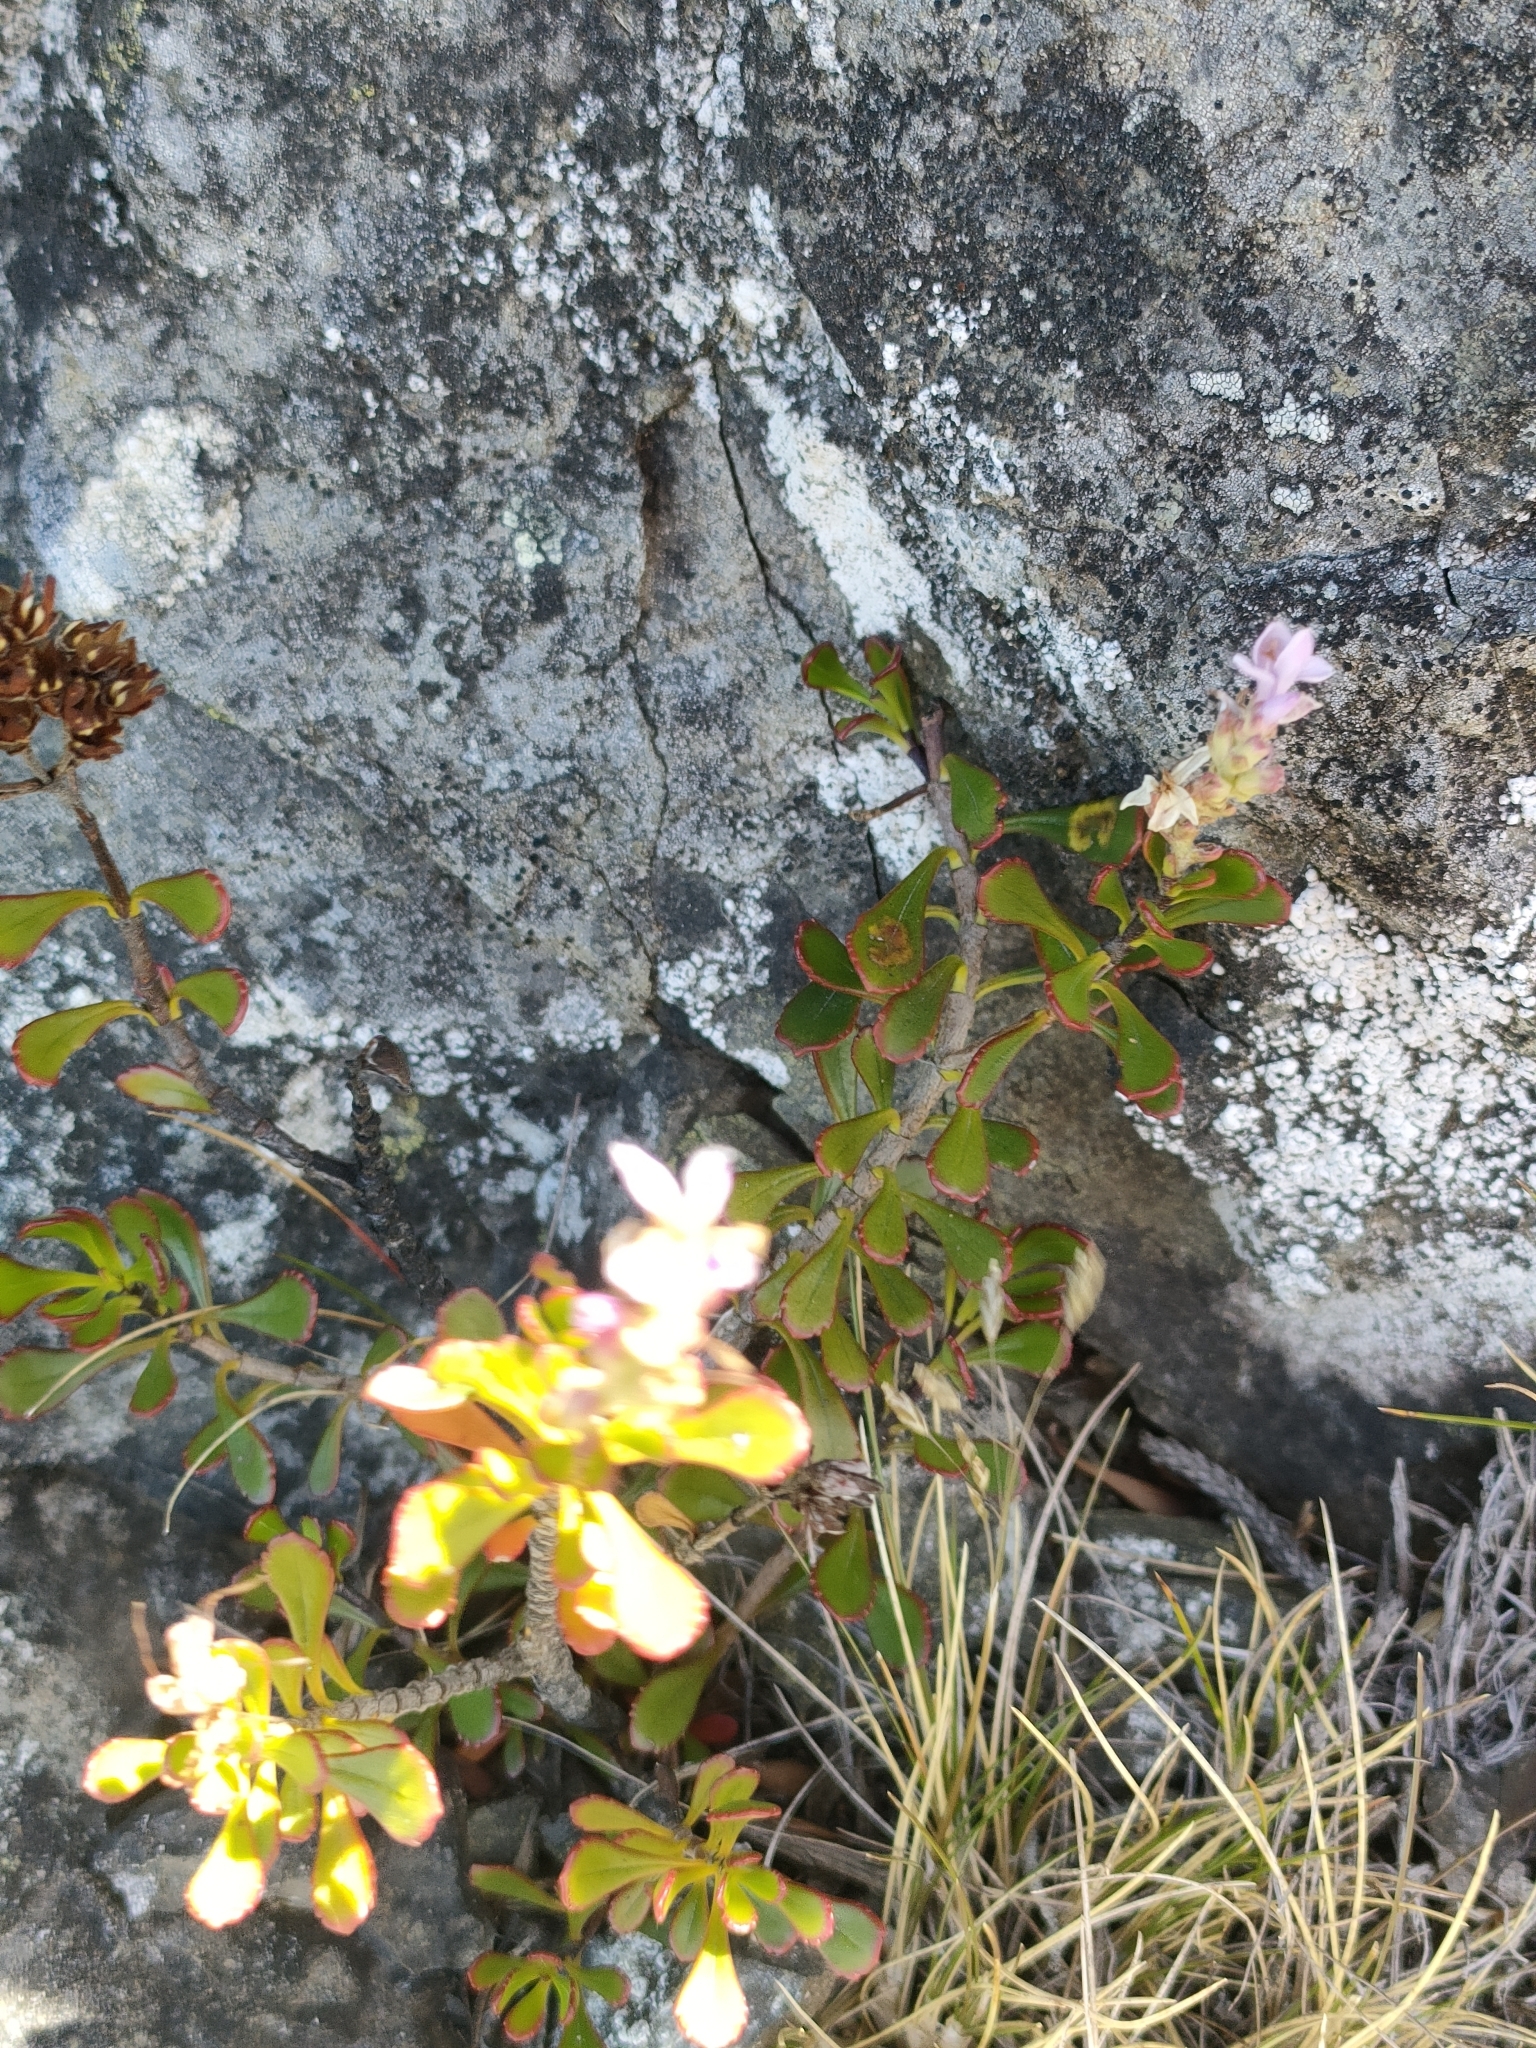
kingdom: Plantae
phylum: Tracheophyta
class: Magnoliopsida
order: Lamiales
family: Plantaginaceae
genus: Veronica
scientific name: Veronica raoulii
